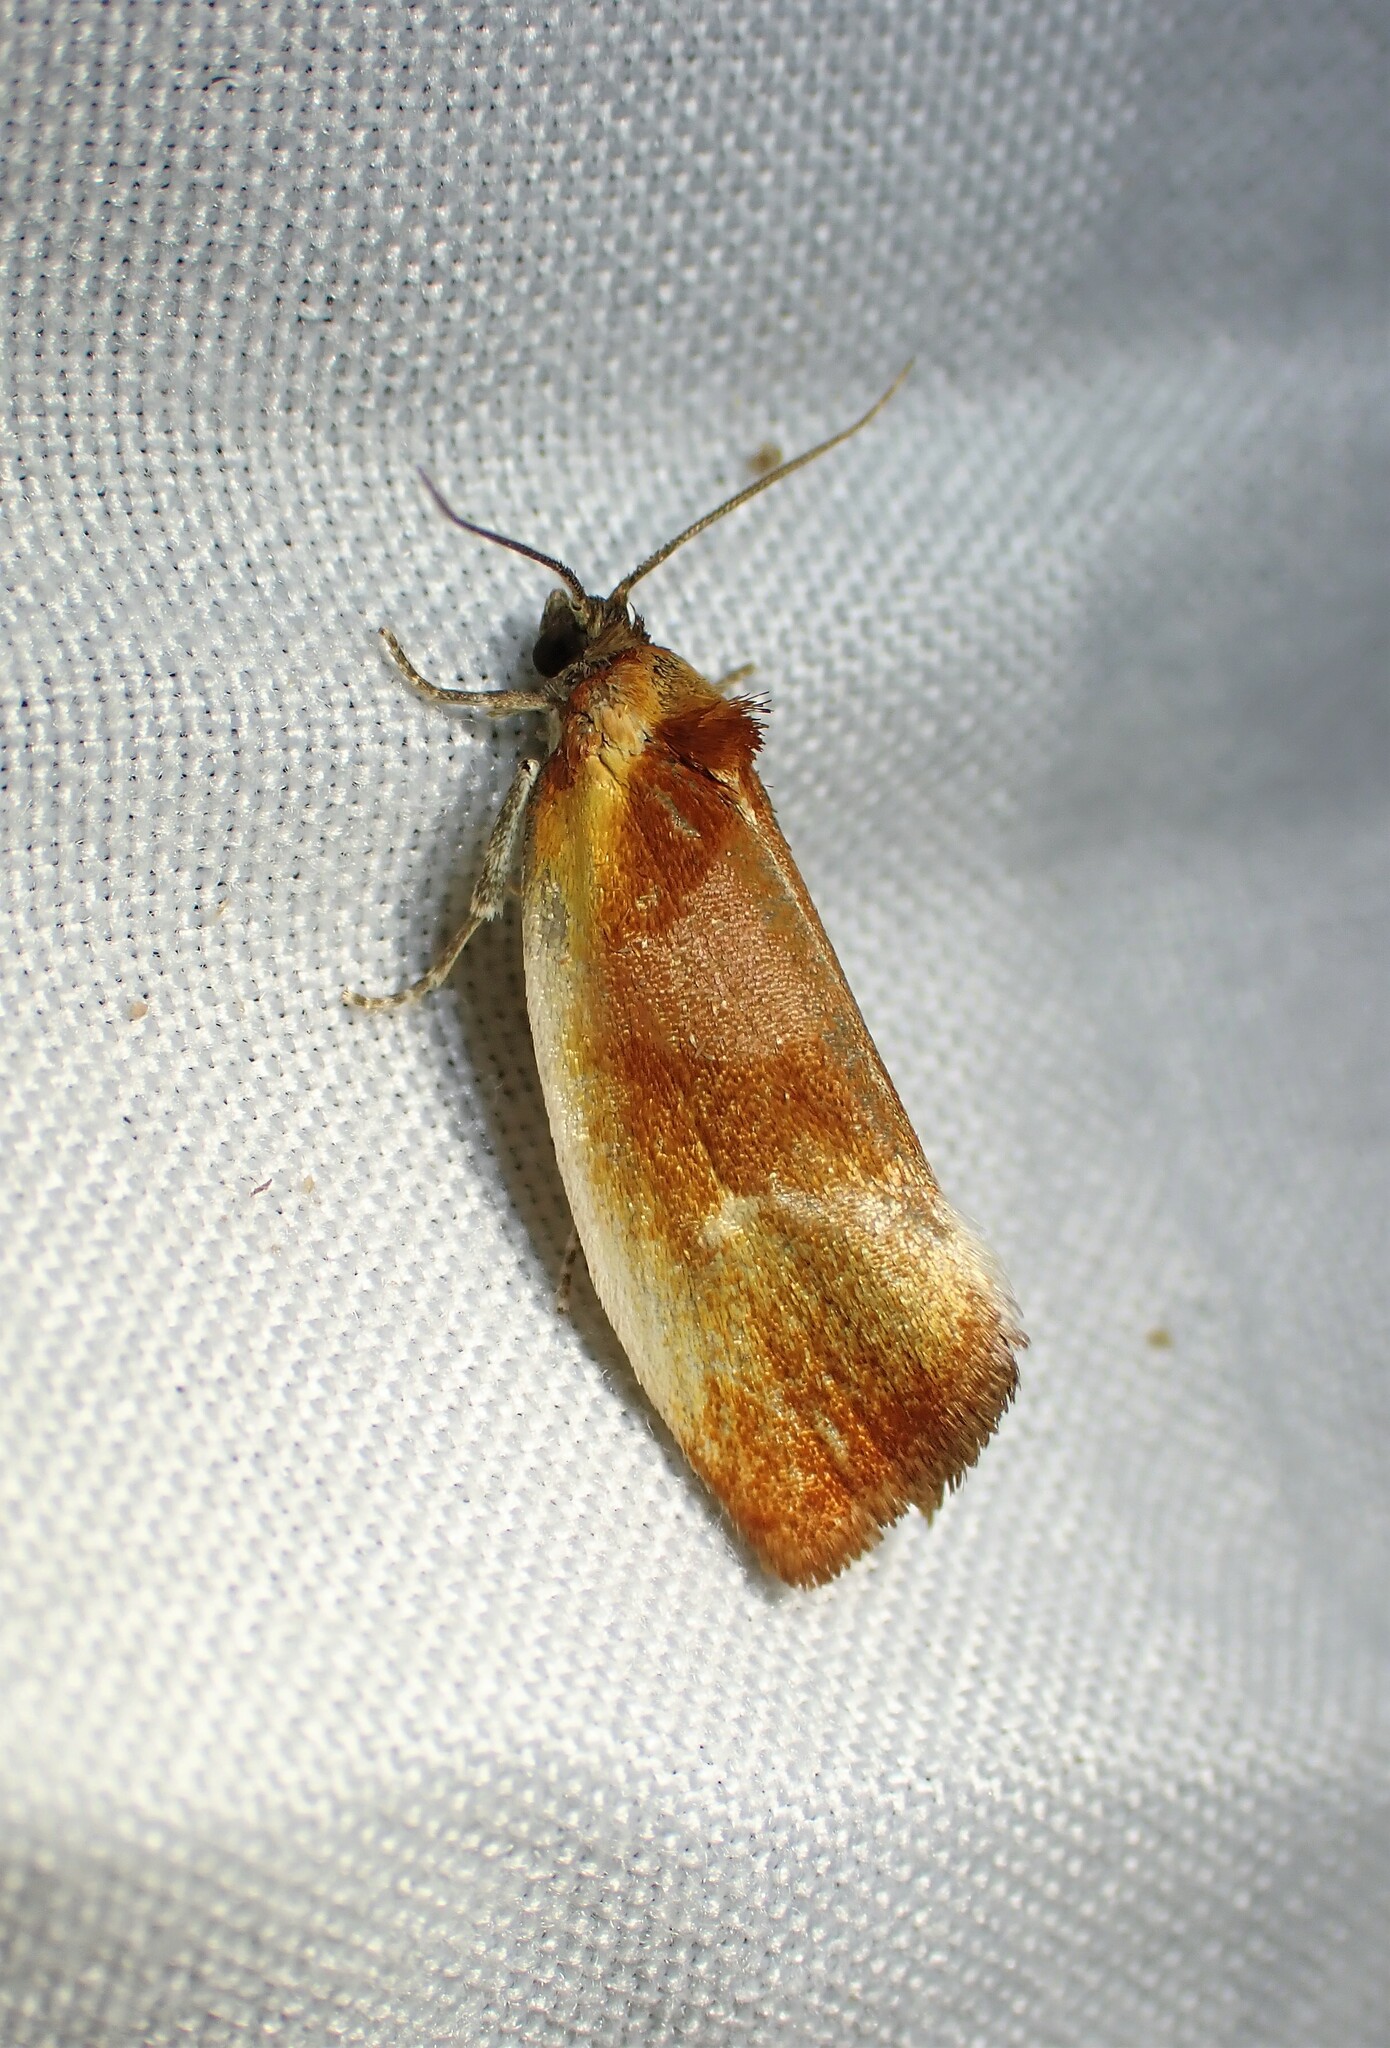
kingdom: Animalia
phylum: Arthropoda
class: Insecta
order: Lepidoptera
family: Tortricidae
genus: Eulia
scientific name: Eulia ministrana
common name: Brassy twist
